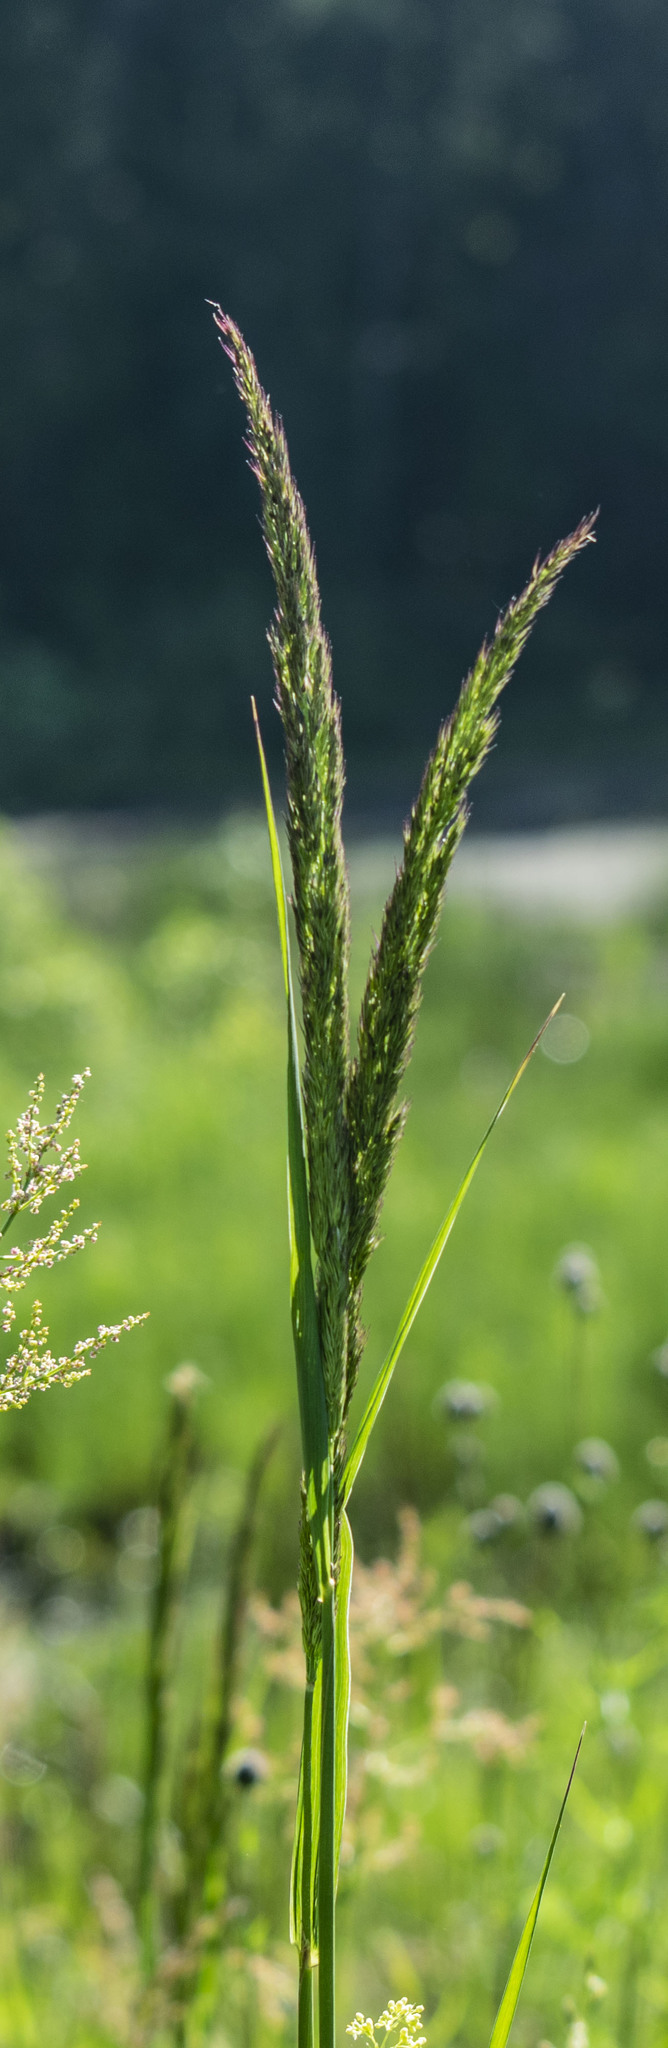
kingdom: Plantae
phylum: Tracheophyta
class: Liliopsida
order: Poales
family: Poaceae
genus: Calamagrostis
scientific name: Calamagrostis epigejos
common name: Wood small-reed
